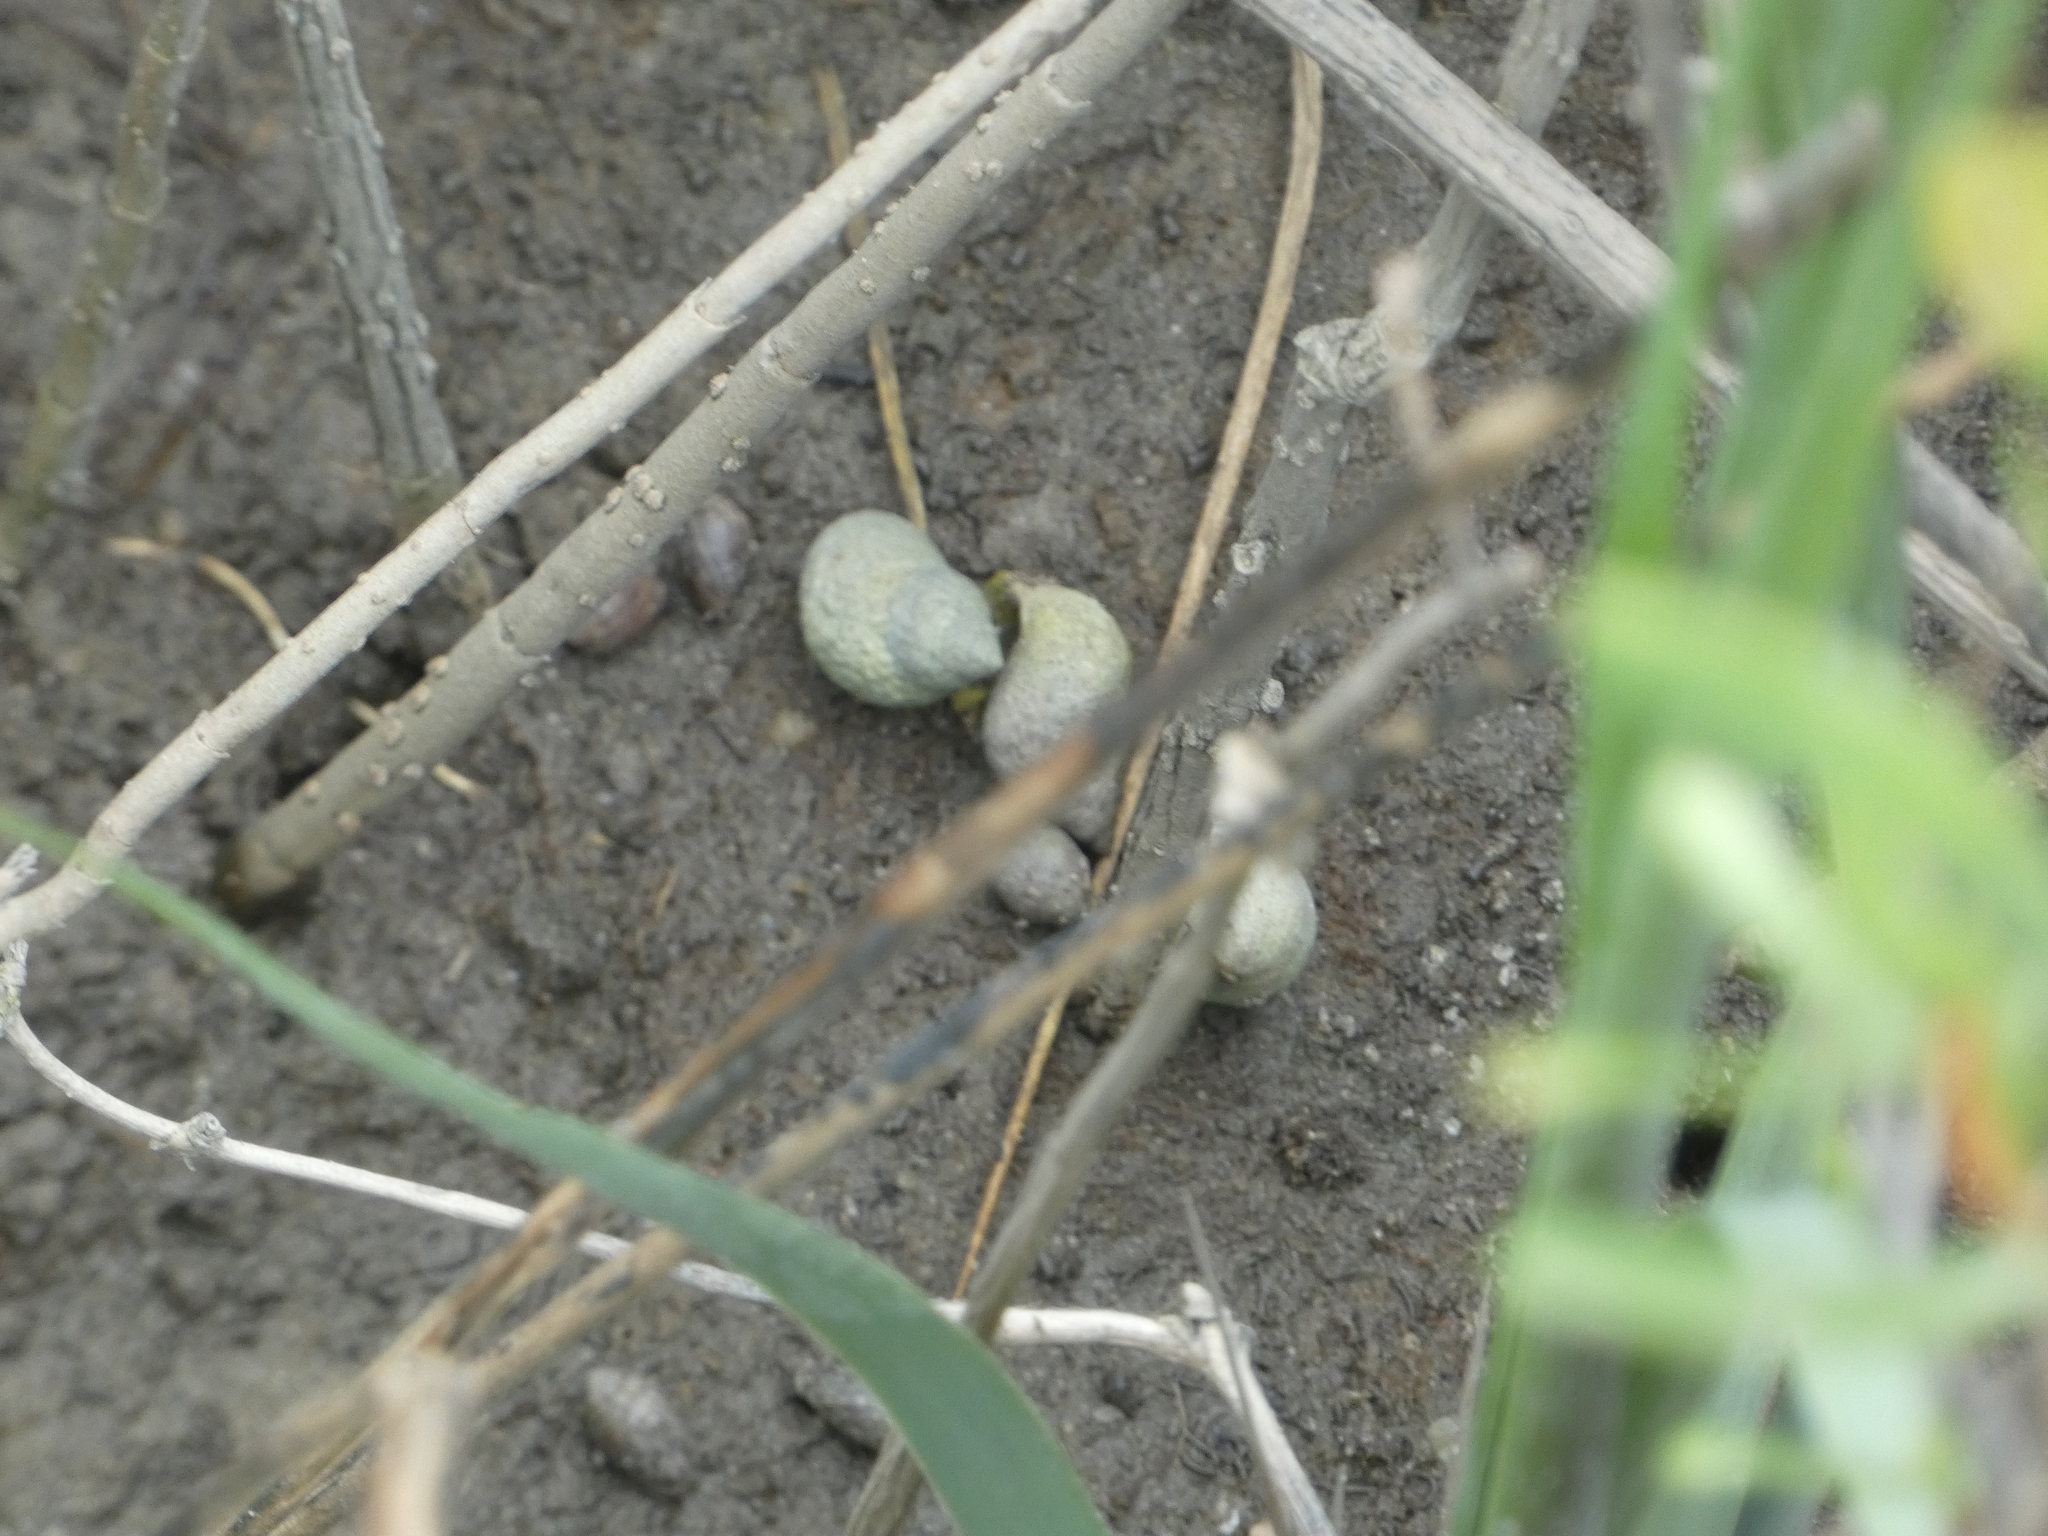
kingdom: Animalia
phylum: Mollusca
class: Gastropoda
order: Littorinimorpha
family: Littorinidae
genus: Littoraria
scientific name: Littoraria irrorata
